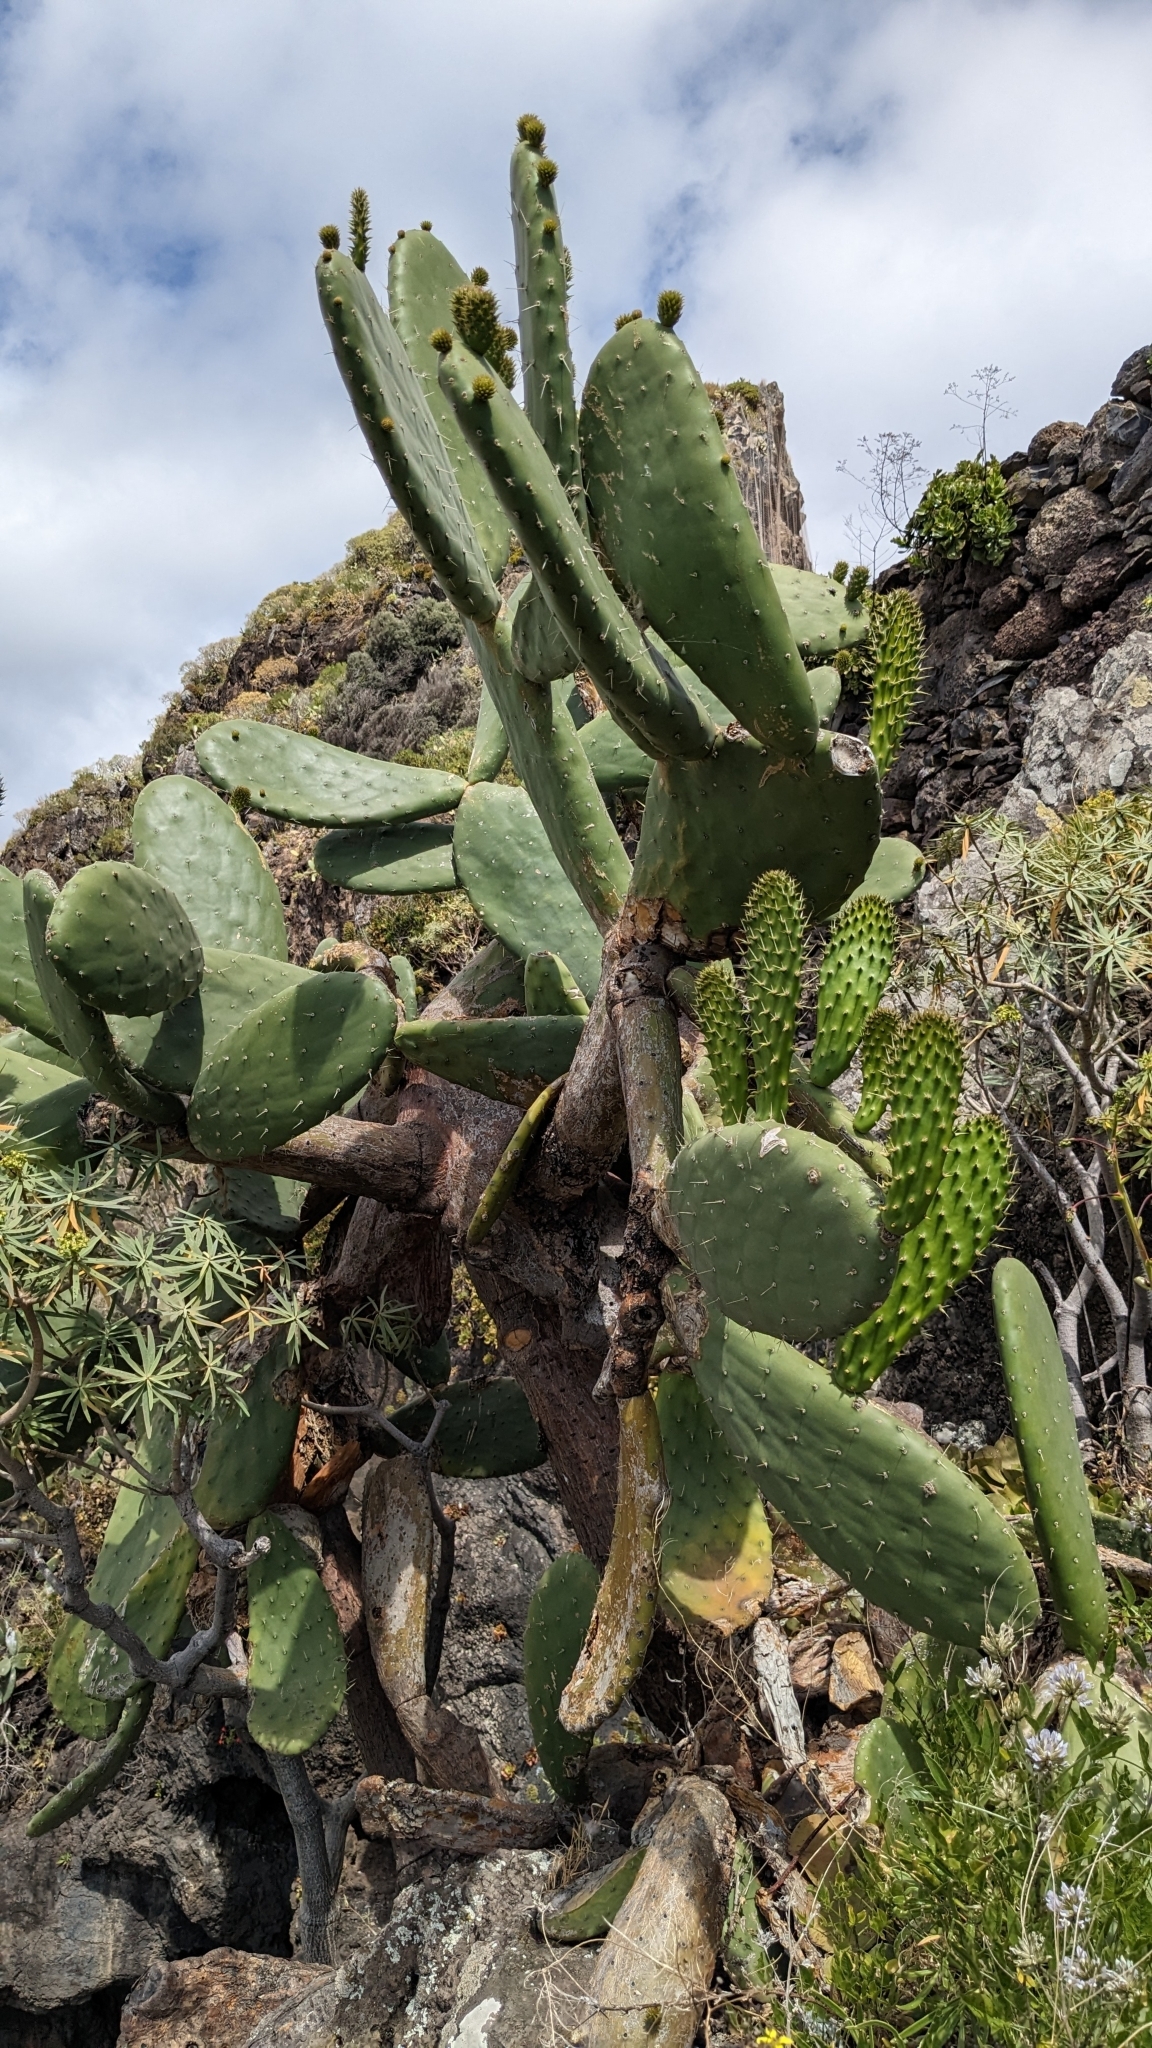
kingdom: Plantae
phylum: Tracheophyta
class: Magnoliopsida
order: Caryophyllales
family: Cactaceae
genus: Opuntia
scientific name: Opuntia ficus-indica
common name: Barbary fig
